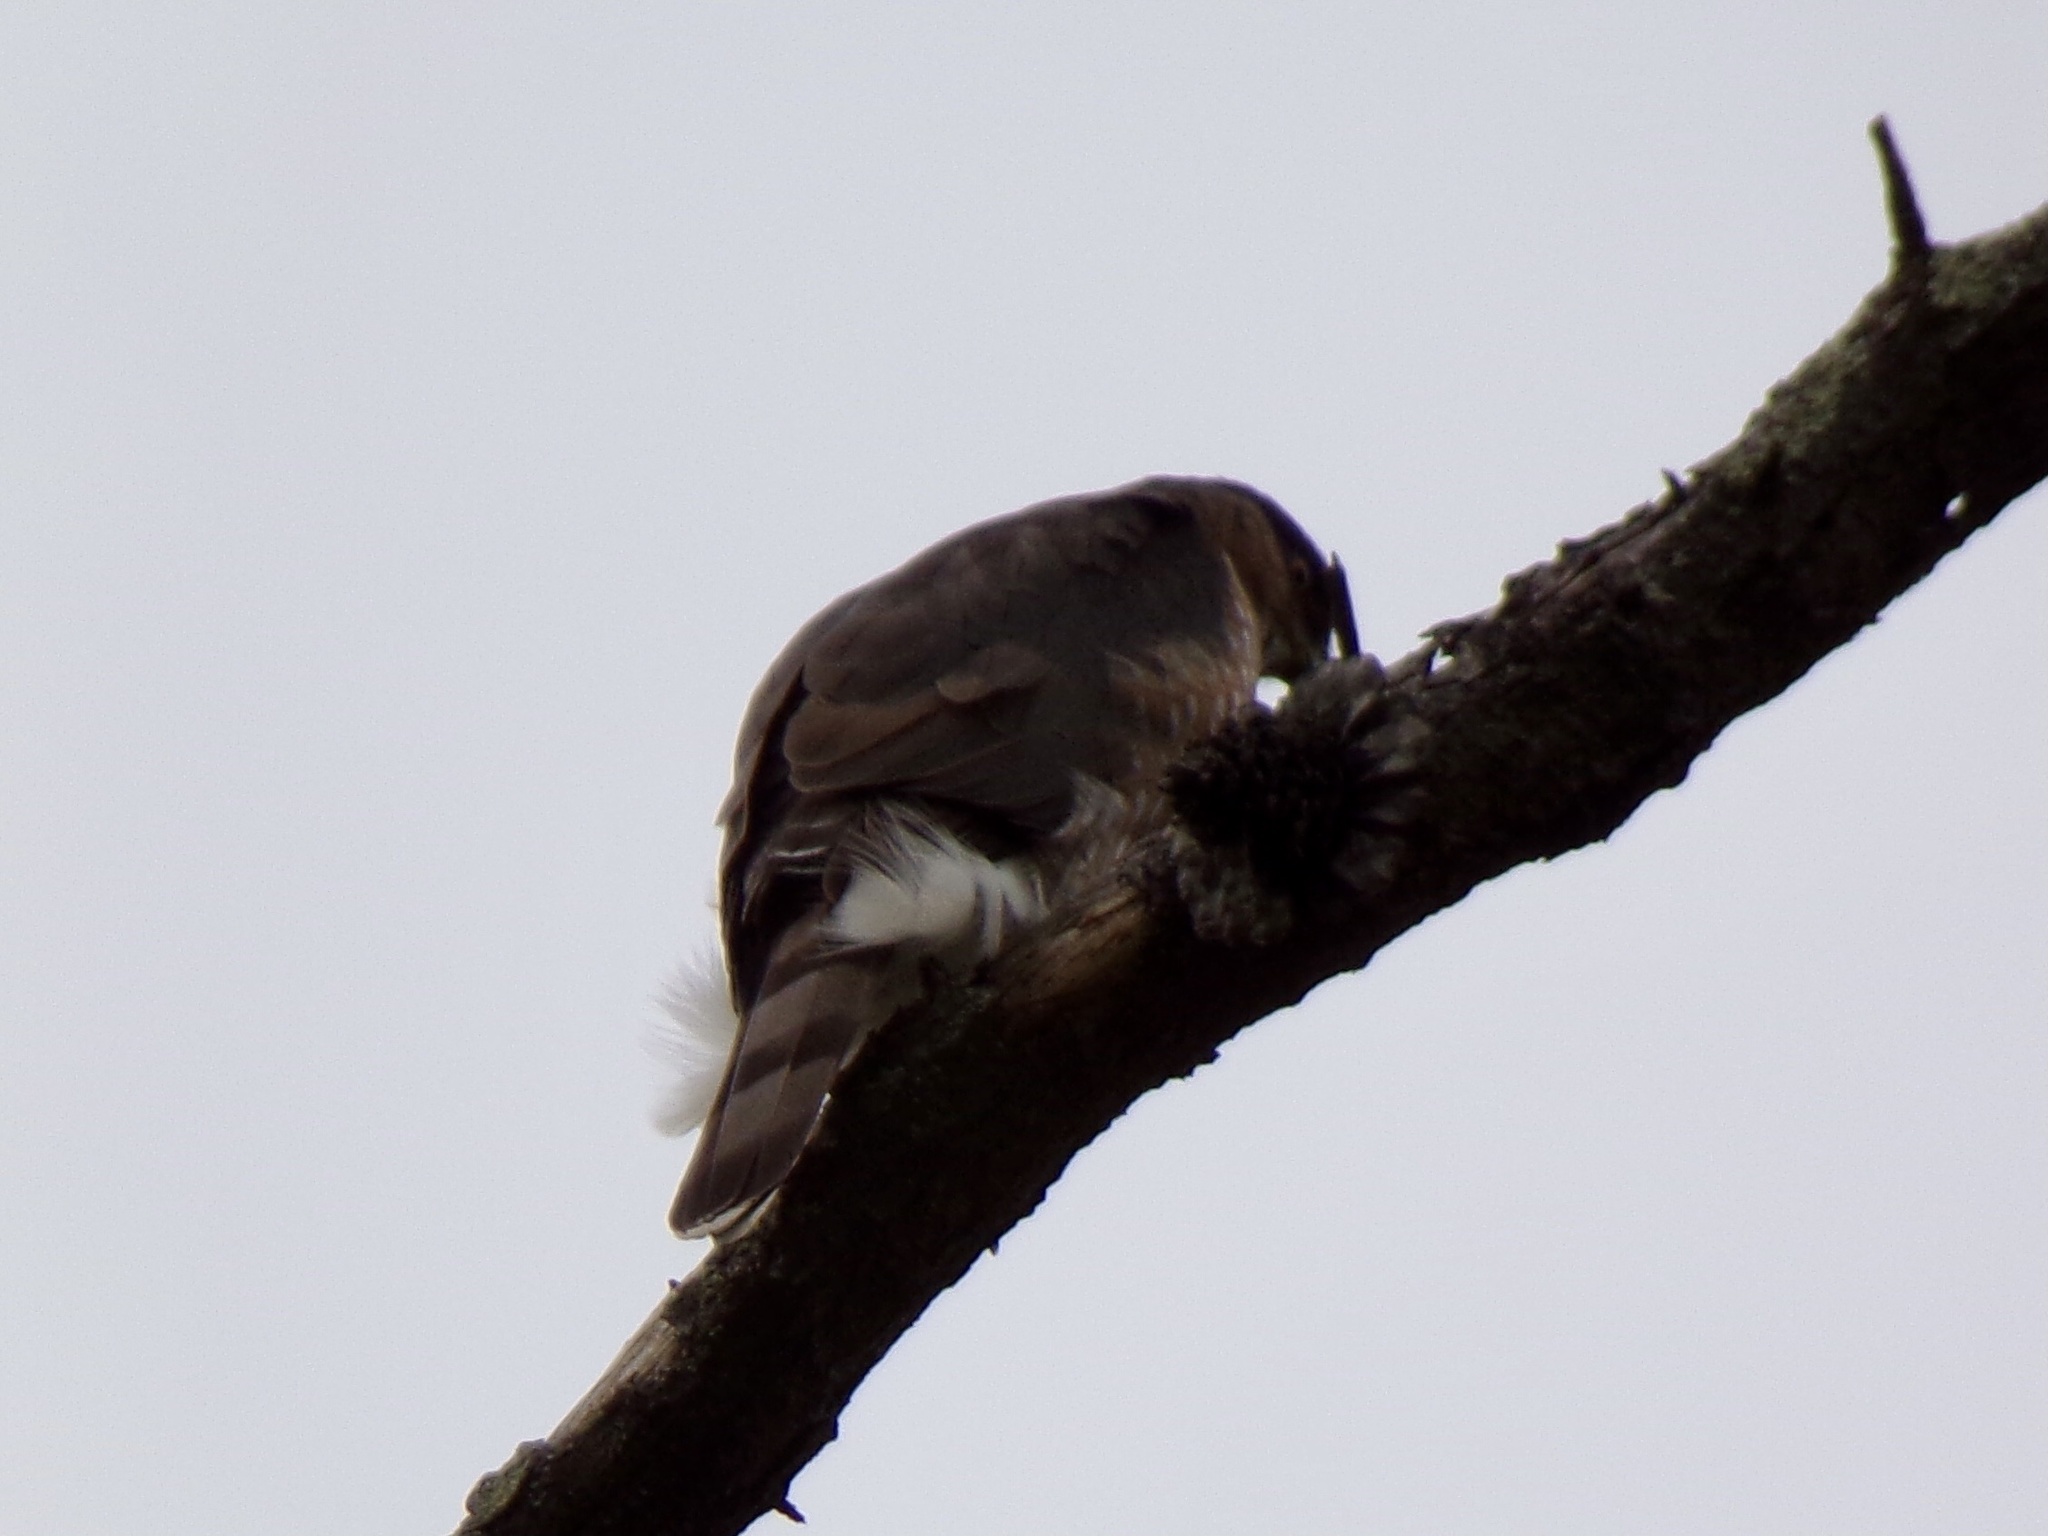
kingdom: Animalia
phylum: Chordata
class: Aves
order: Accipitriformes
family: Accipitridae
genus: Accipiter
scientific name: Accipiter cooperii
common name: Cooper's hawk
